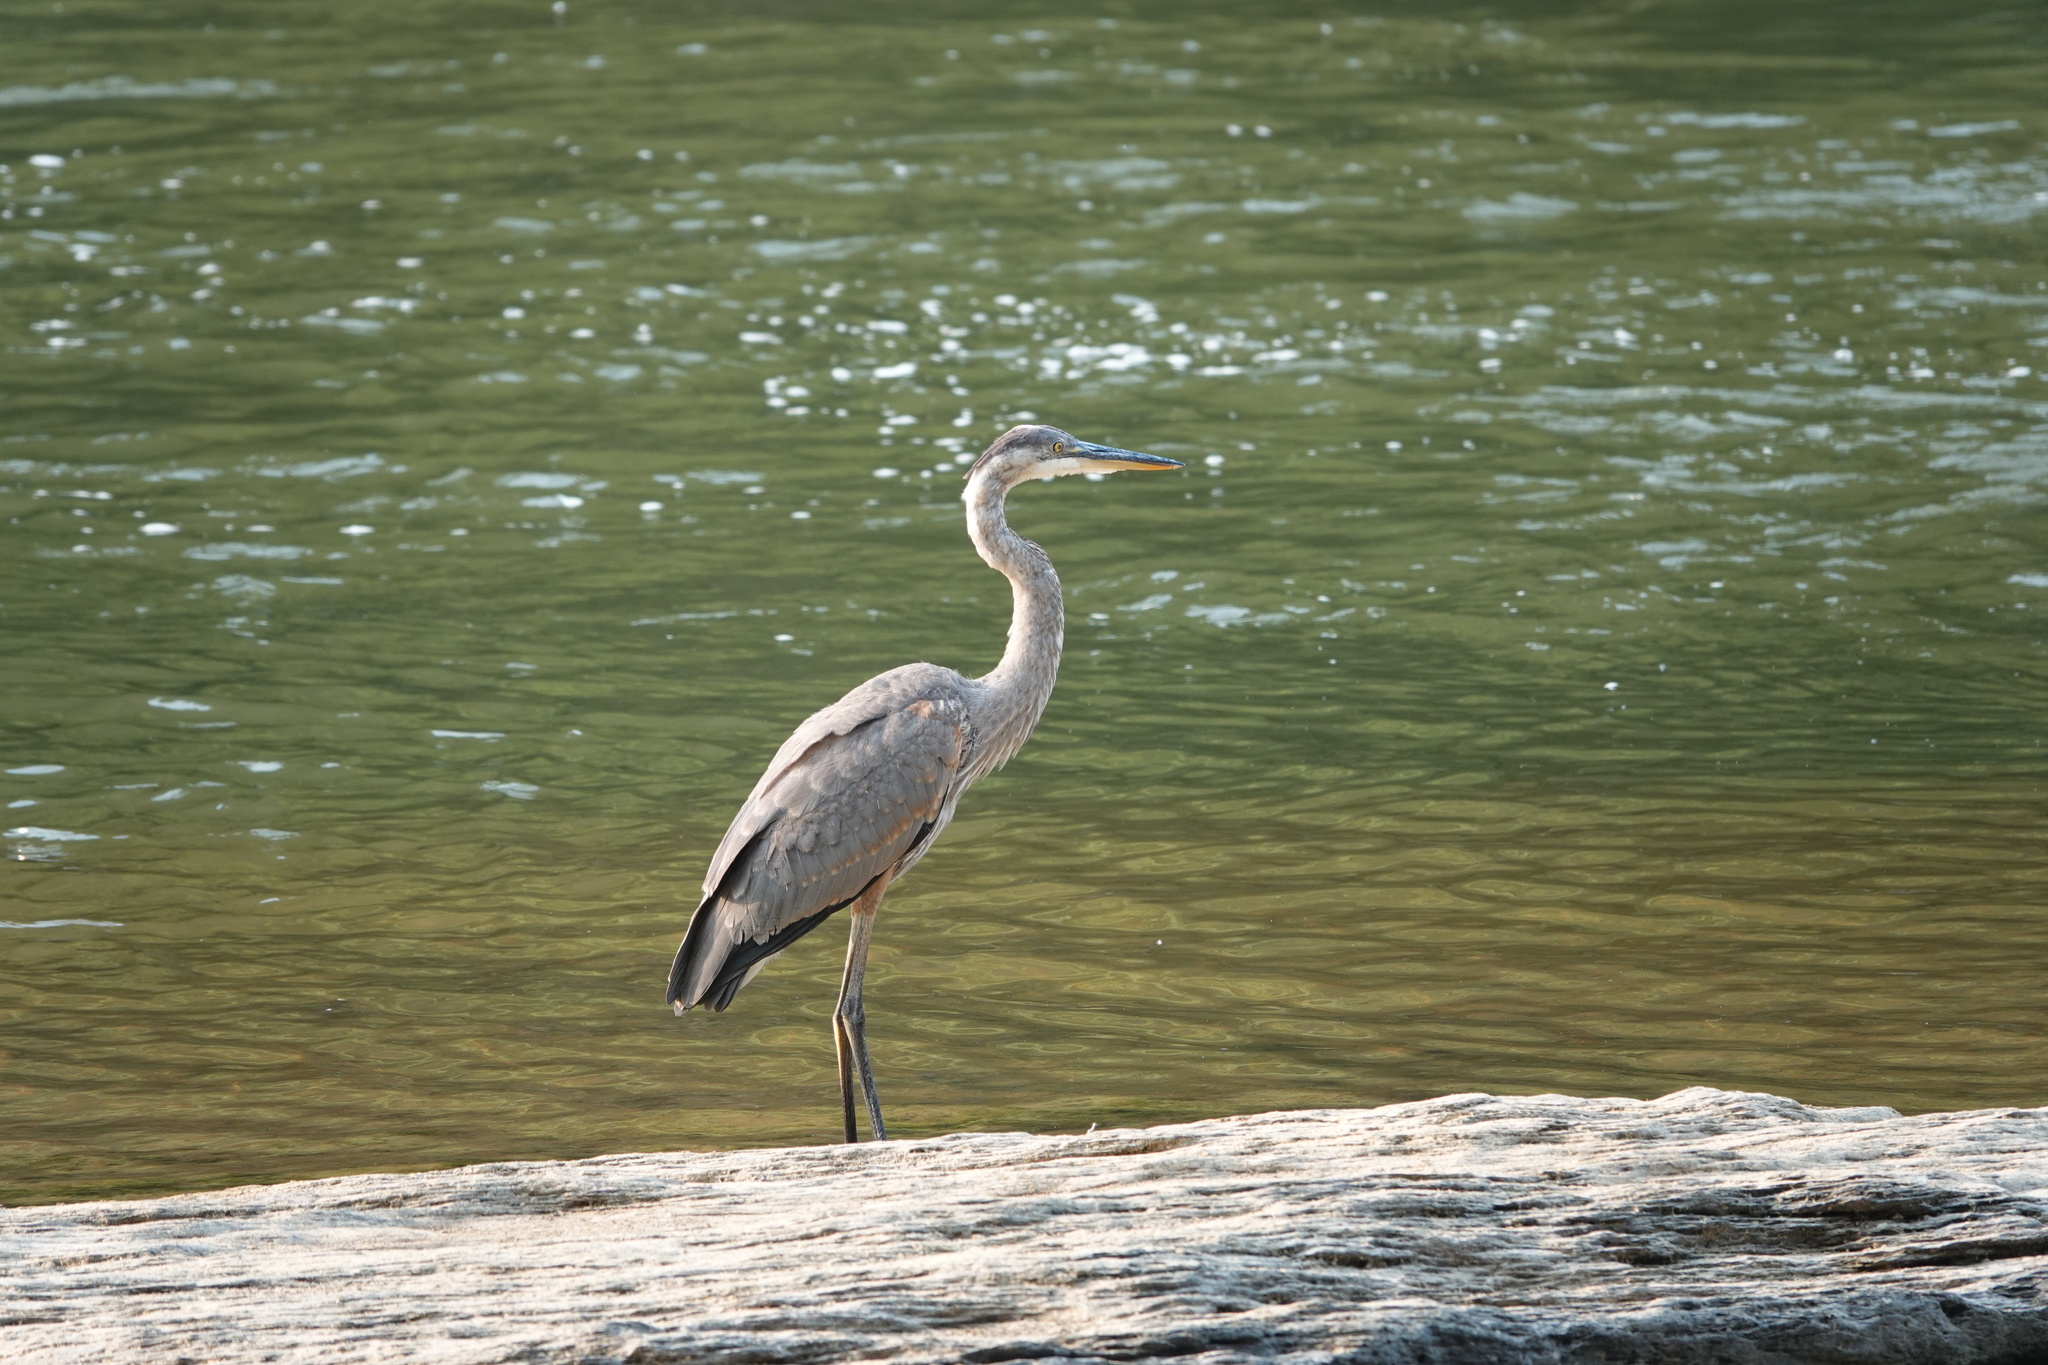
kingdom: Animalia
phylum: Chordata
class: Aves
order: Pelecaniformes
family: Ardeidae
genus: Ardea
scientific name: Ardea herodias
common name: Great blue heron
